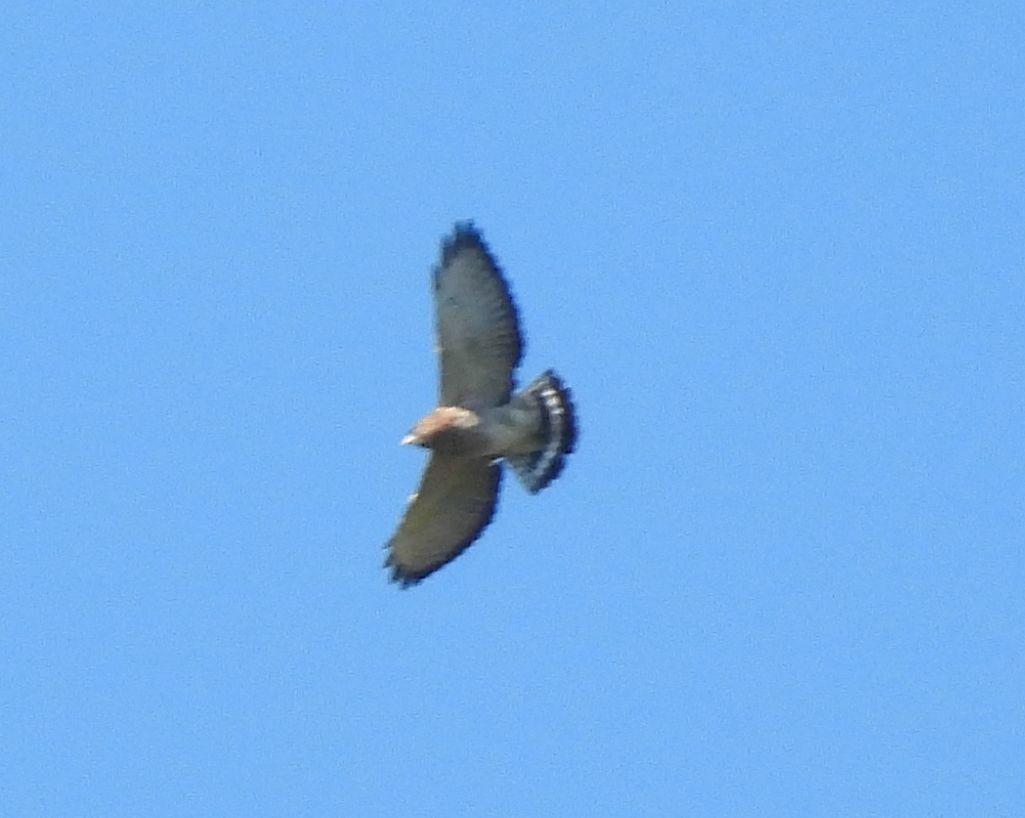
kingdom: Animalia
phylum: Chordata
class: Aves
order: Accipitriformes
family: Accipitridae
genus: Buteo
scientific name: Buteo platypterus
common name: Broad-winged hawk
